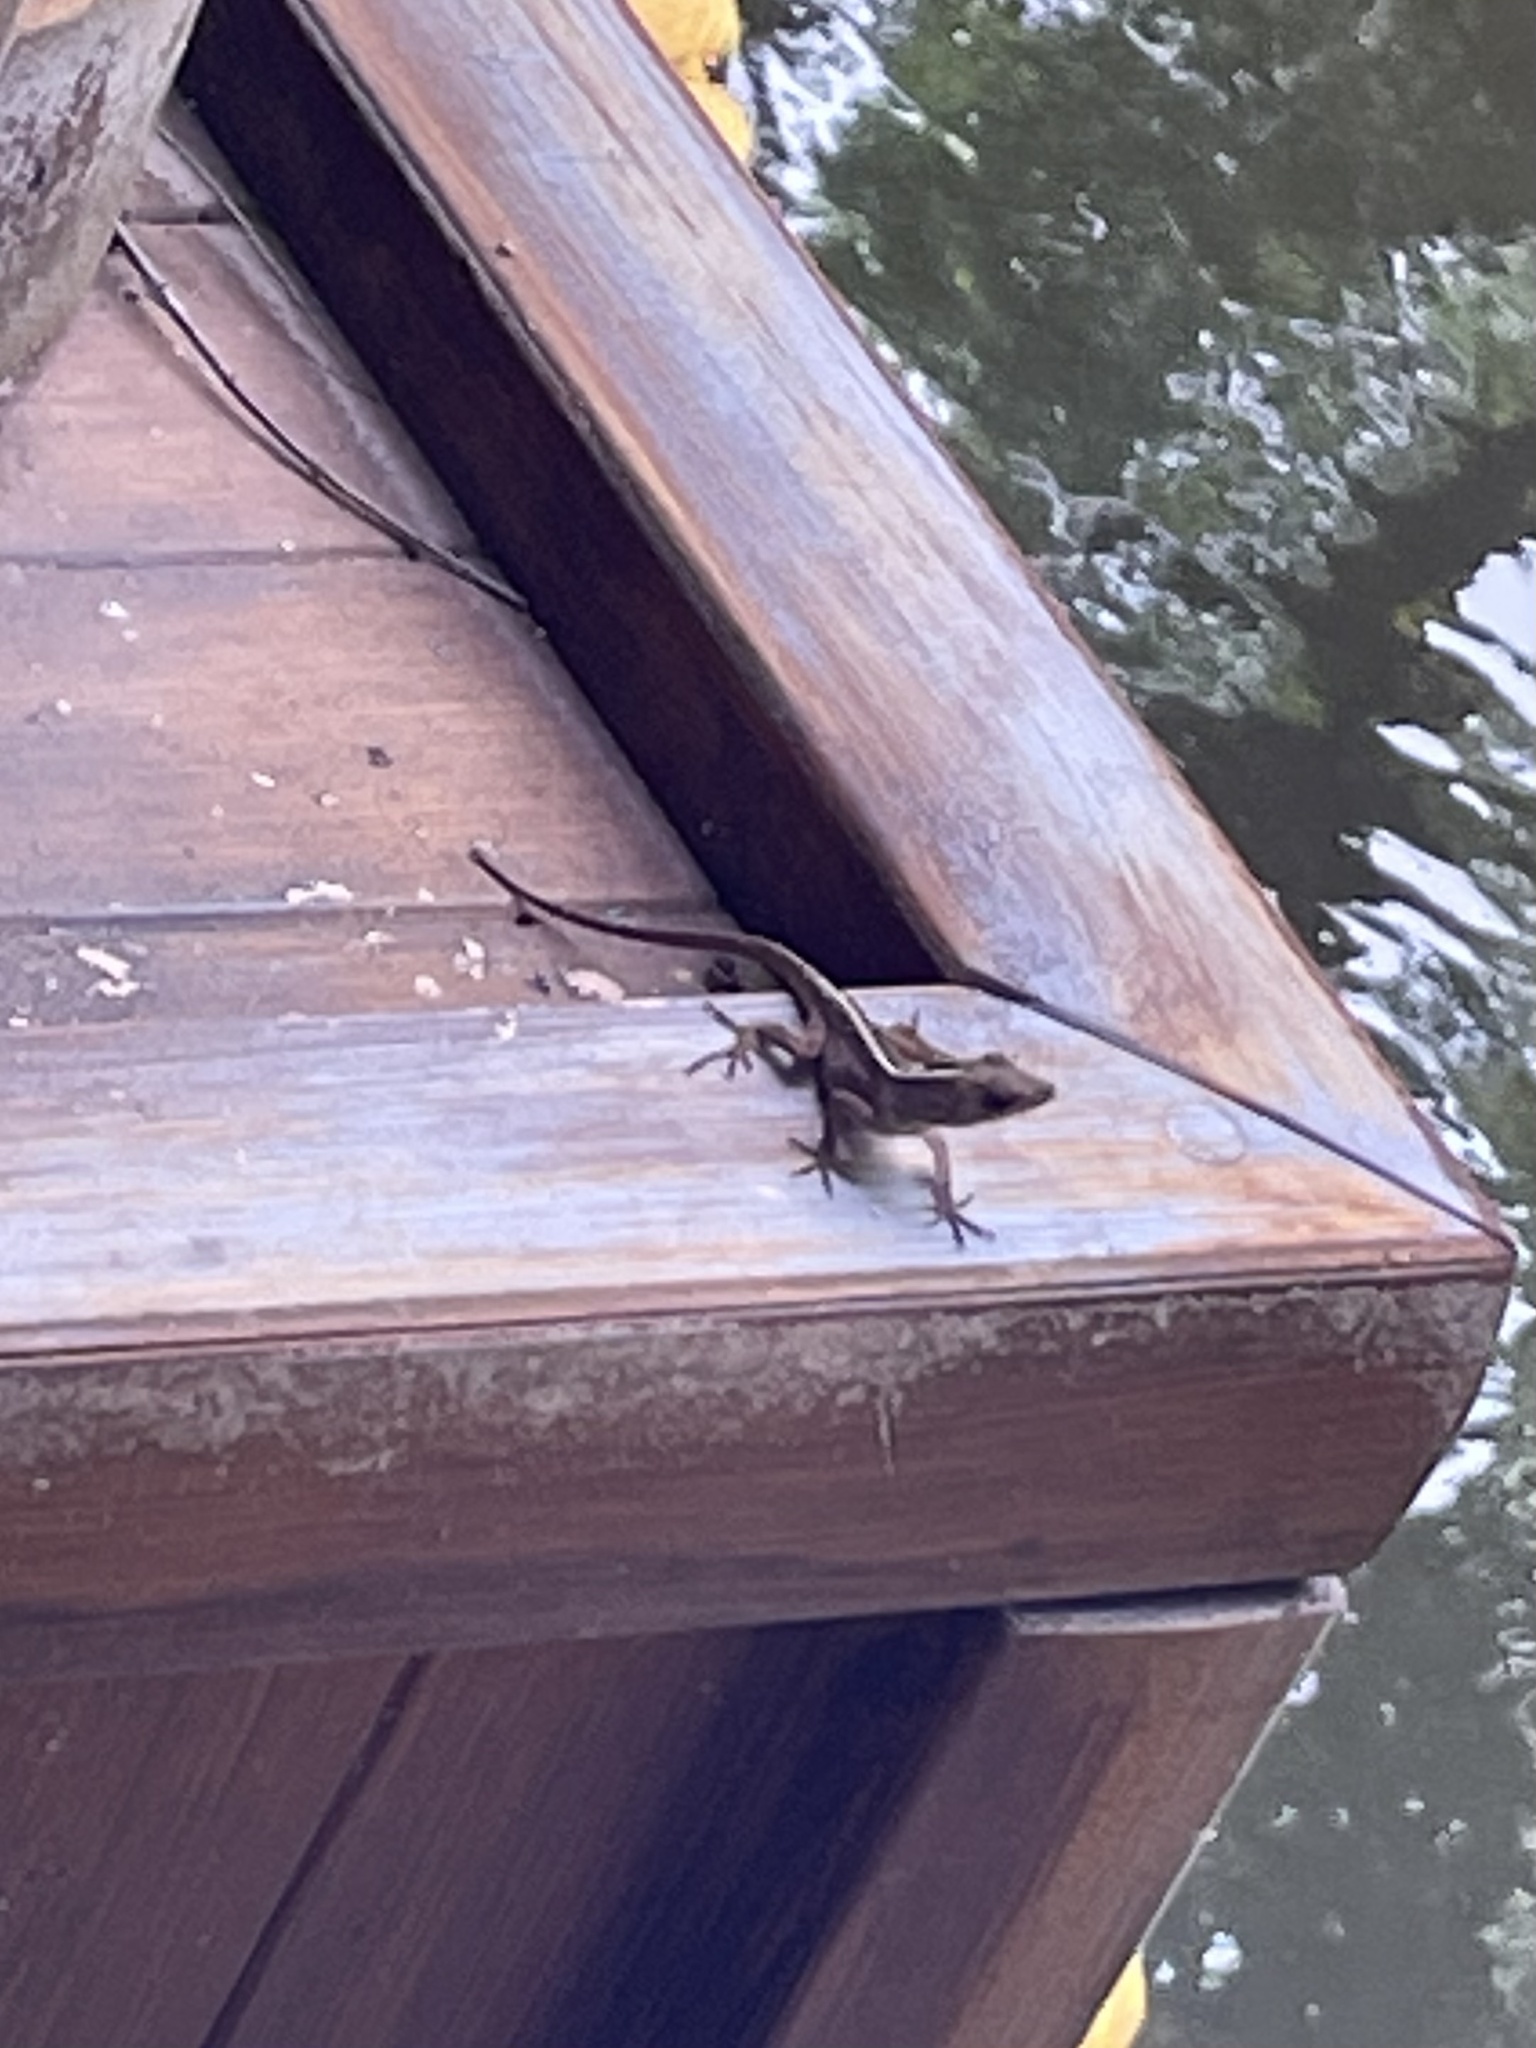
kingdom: Animalia
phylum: Chordata
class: Squamata
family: Dactyloidae
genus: Anolis
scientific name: Anolis sagrei
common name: Brown anole
